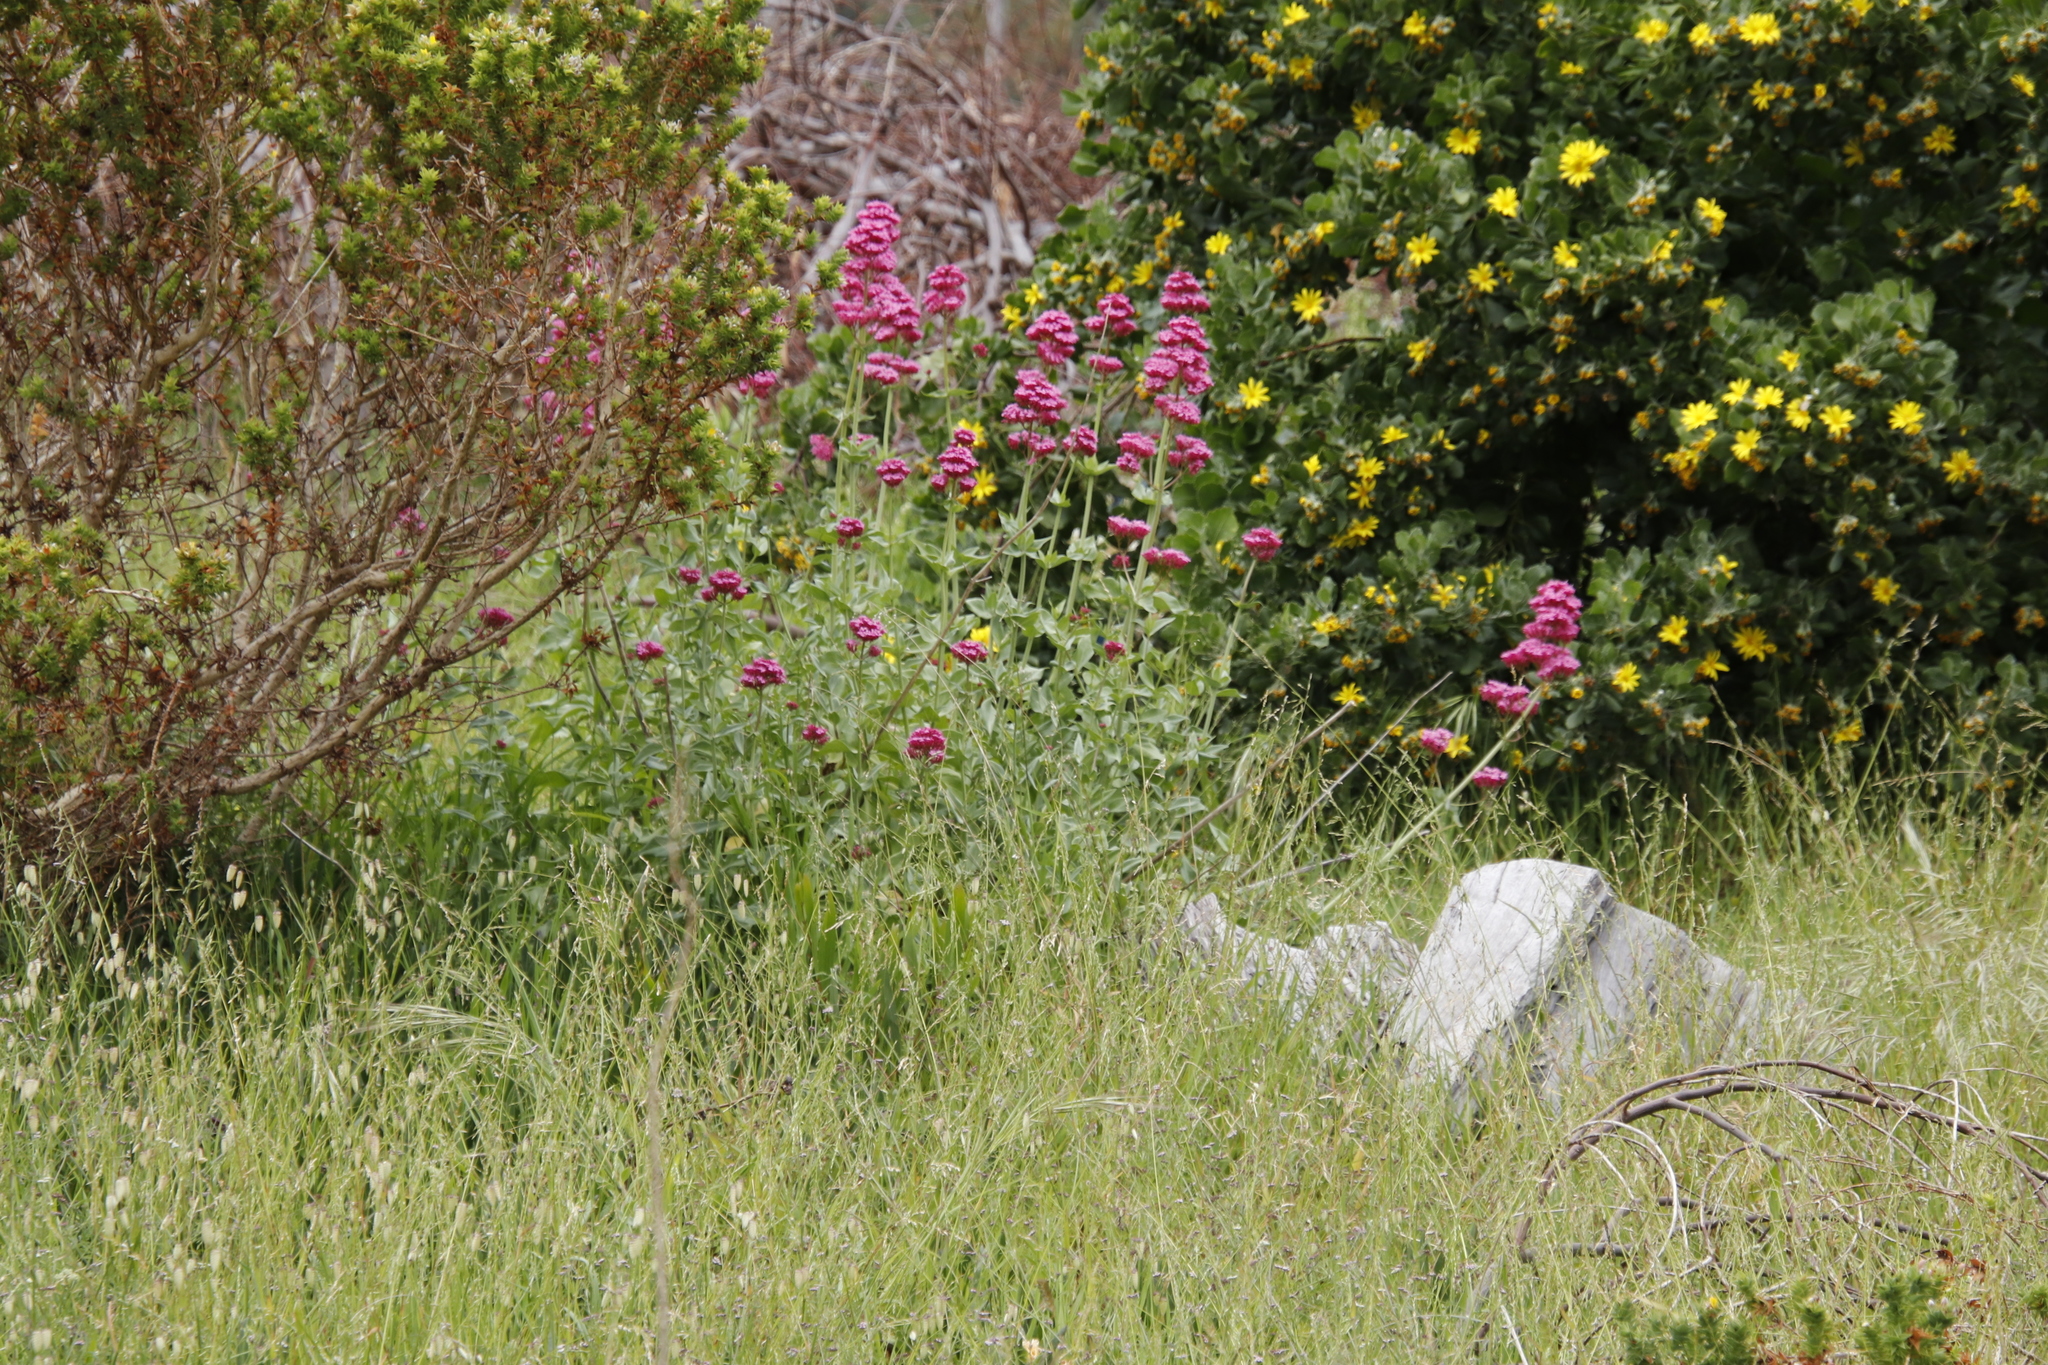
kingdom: Plantae
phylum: Tracheophyta
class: Magnoliopsida
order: Dipsacales
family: Caprifoliaceae
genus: Centranthus
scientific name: Centranthus ruber
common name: Red valerian
